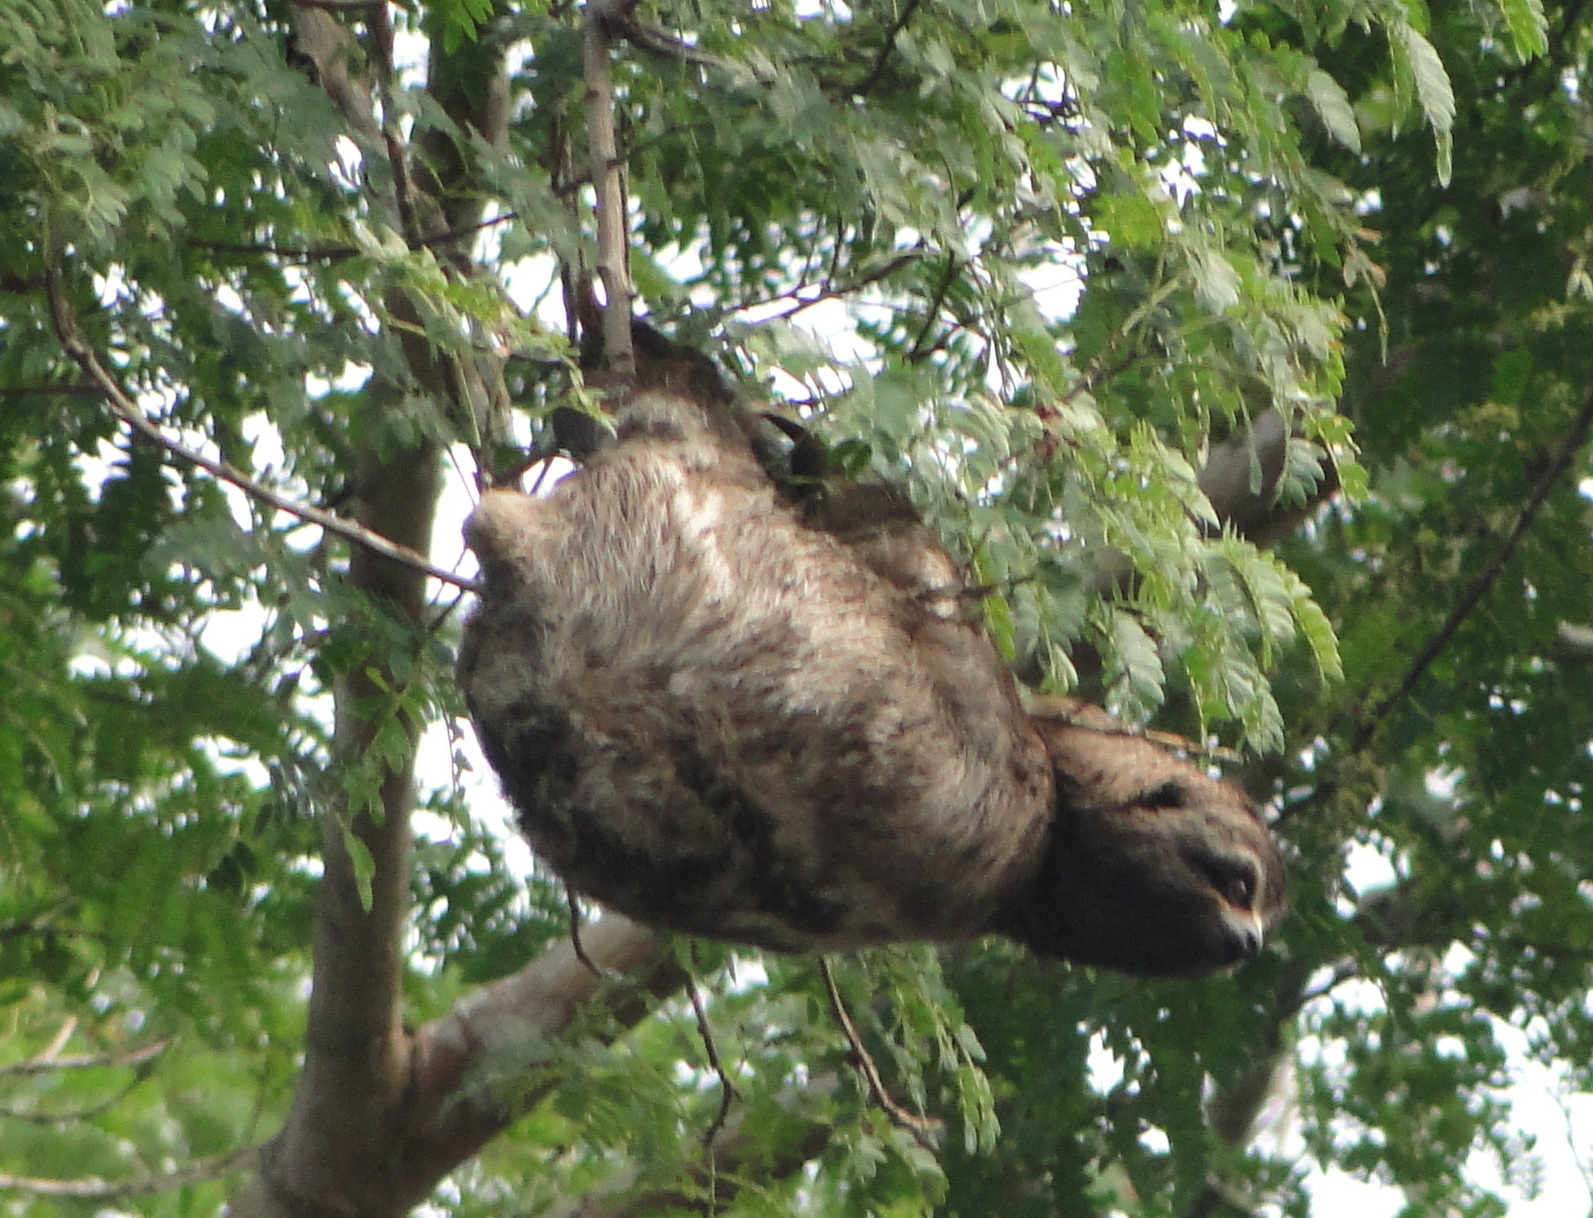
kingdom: Animalia
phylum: Chordata
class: Mammalia
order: Pilosa
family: Bradypodidae
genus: Bradypus
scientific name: Bradypus variegatus
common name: Brown-throated three-toed sloth
